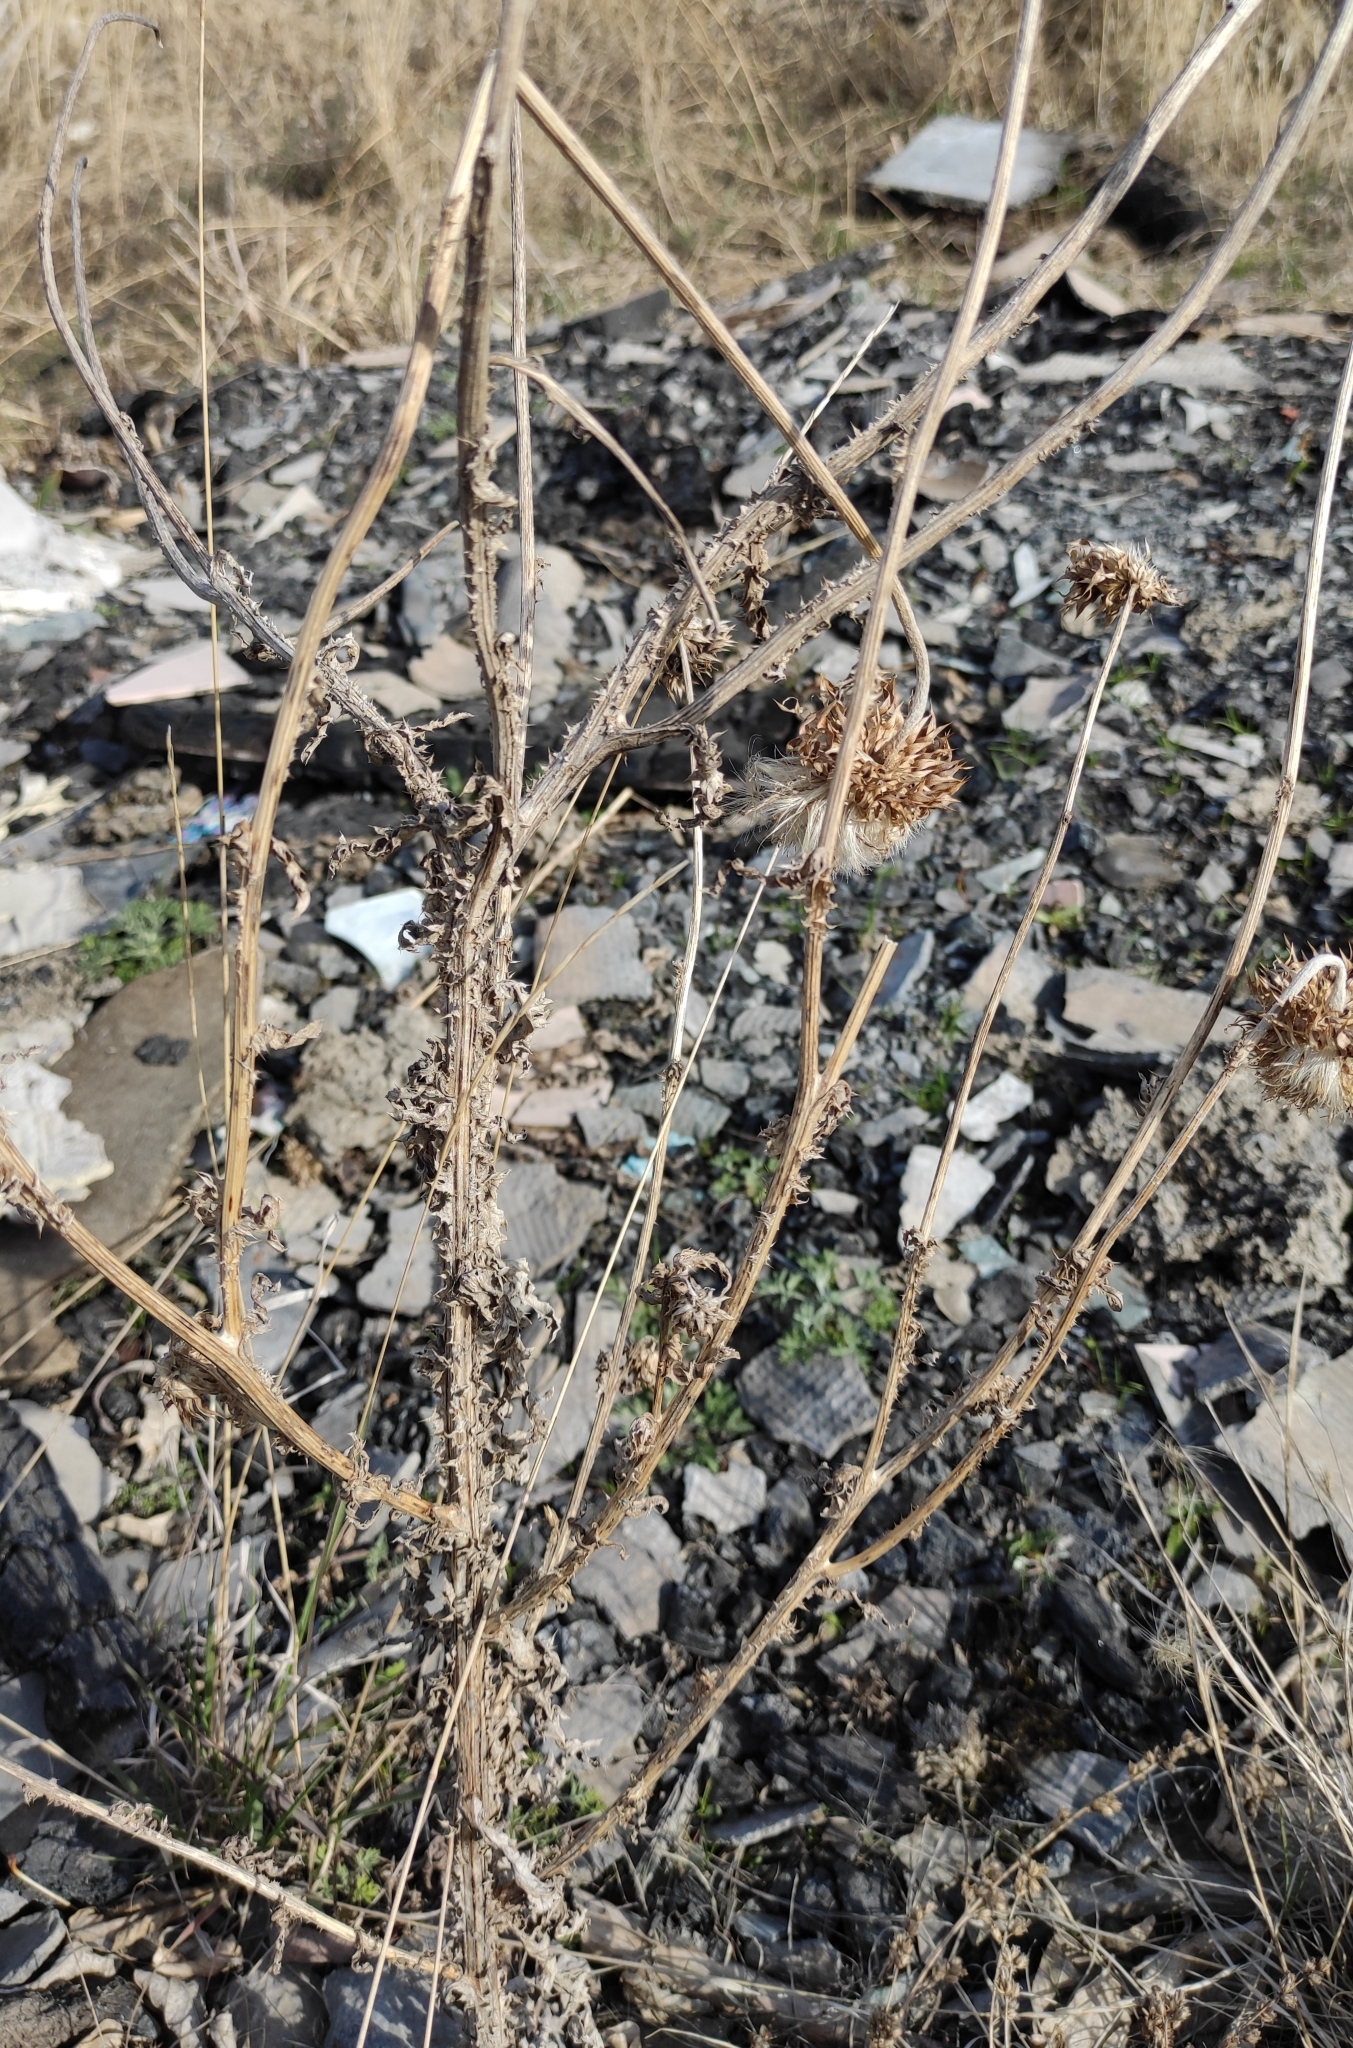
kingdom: Plantae
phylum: Tracheophyta
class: Magnoliopsida
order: Asterales
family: Asteraceae
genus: Carduus
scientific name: Carduus nutans
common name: Musk thistle
